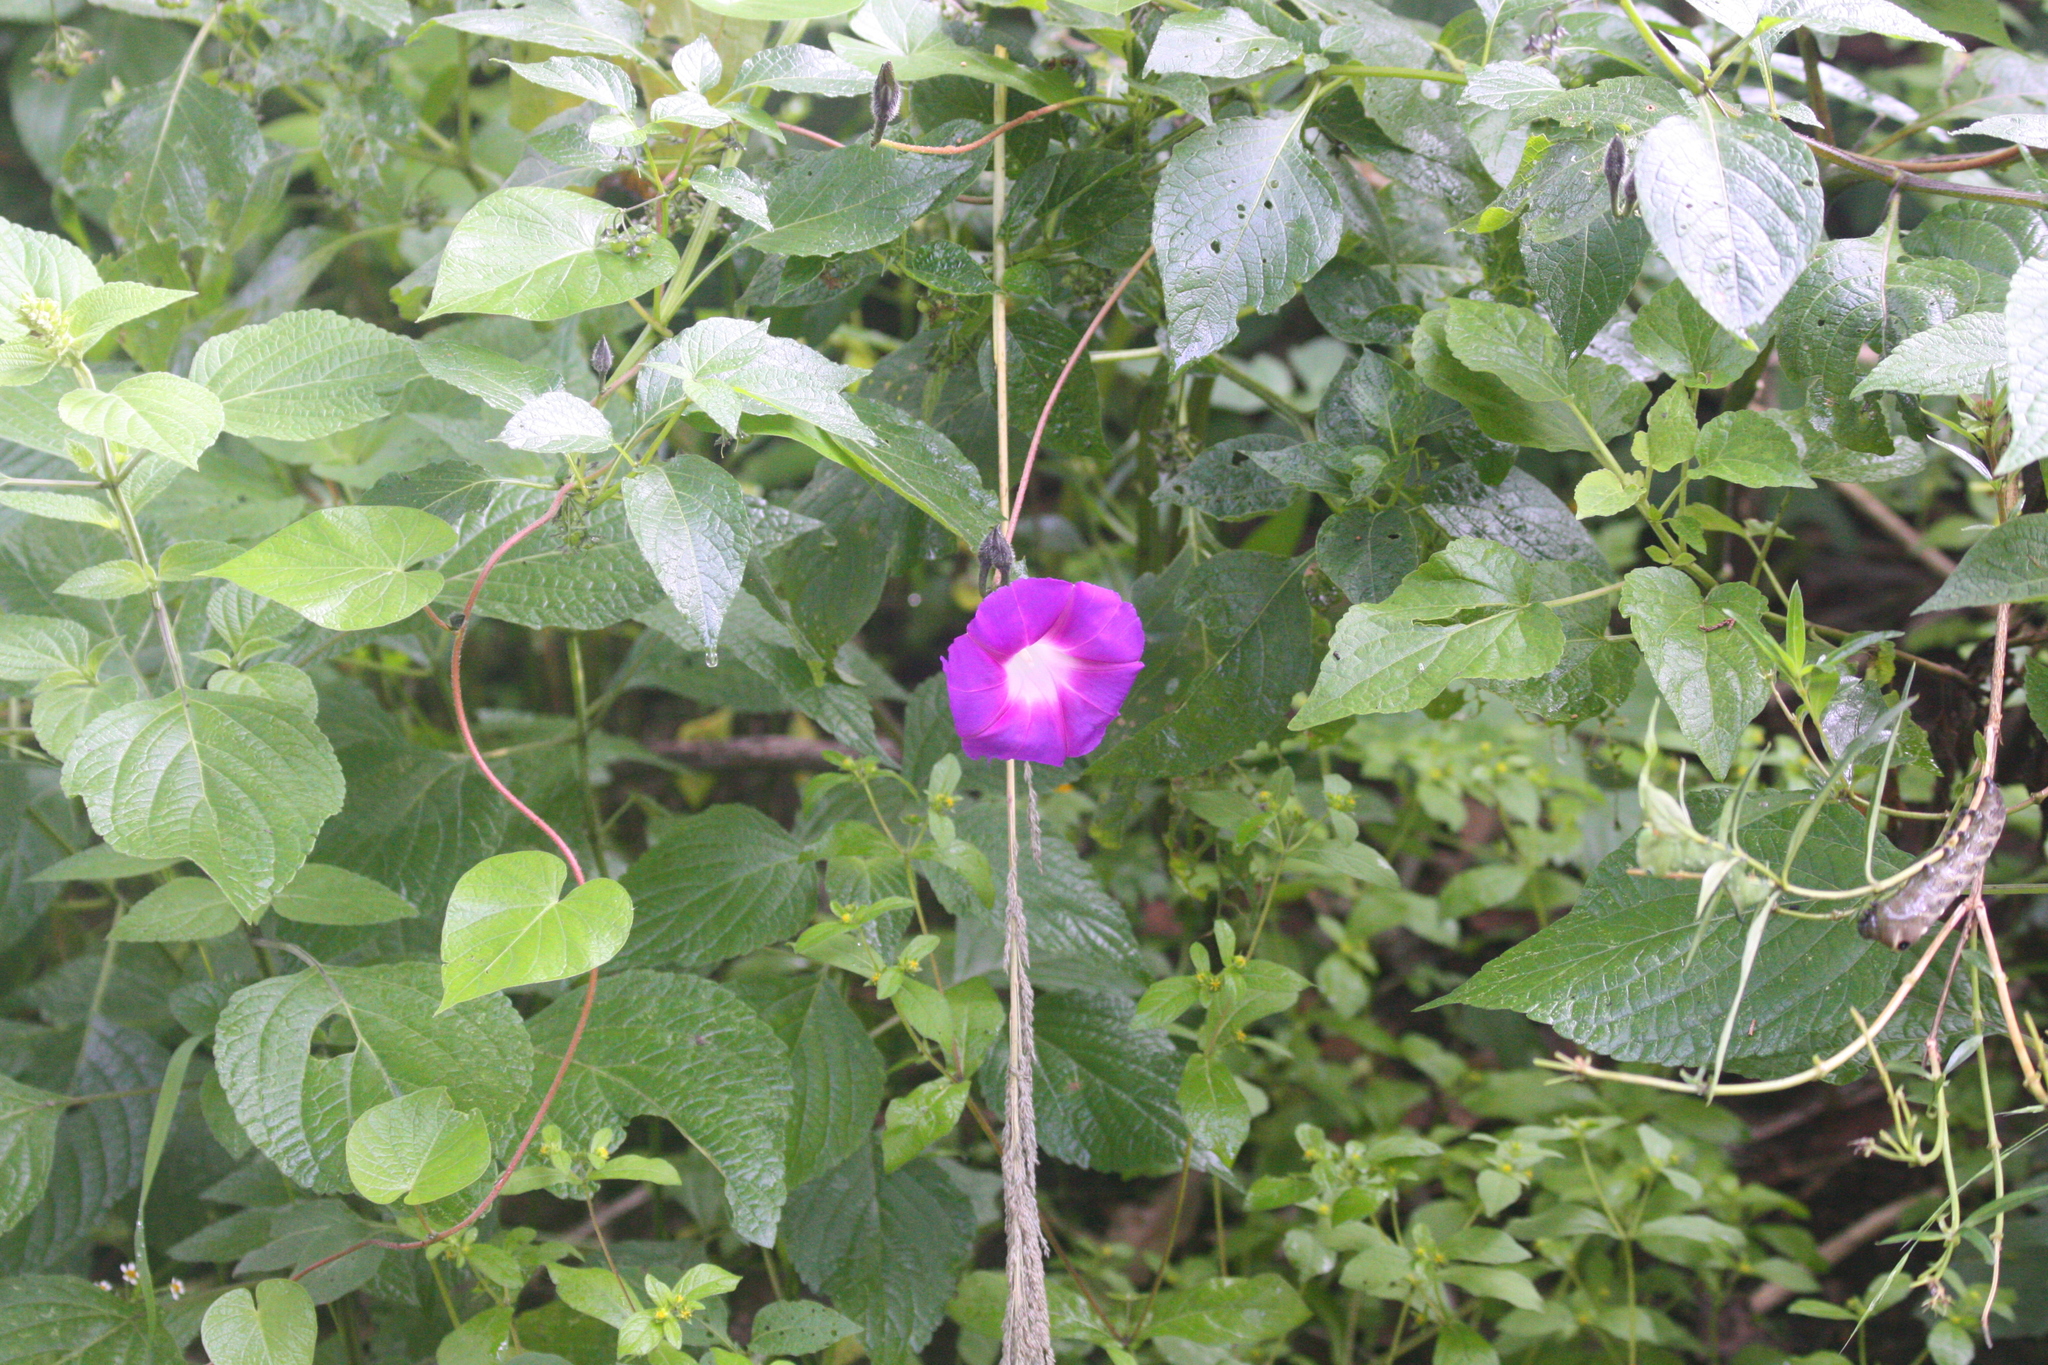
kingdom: Plantae
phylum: Tracheophyta
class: Magnoliopsida
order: Solanales
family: Convolvulaceae
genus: Ipomoea
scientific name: Ipomoea orizabensis
